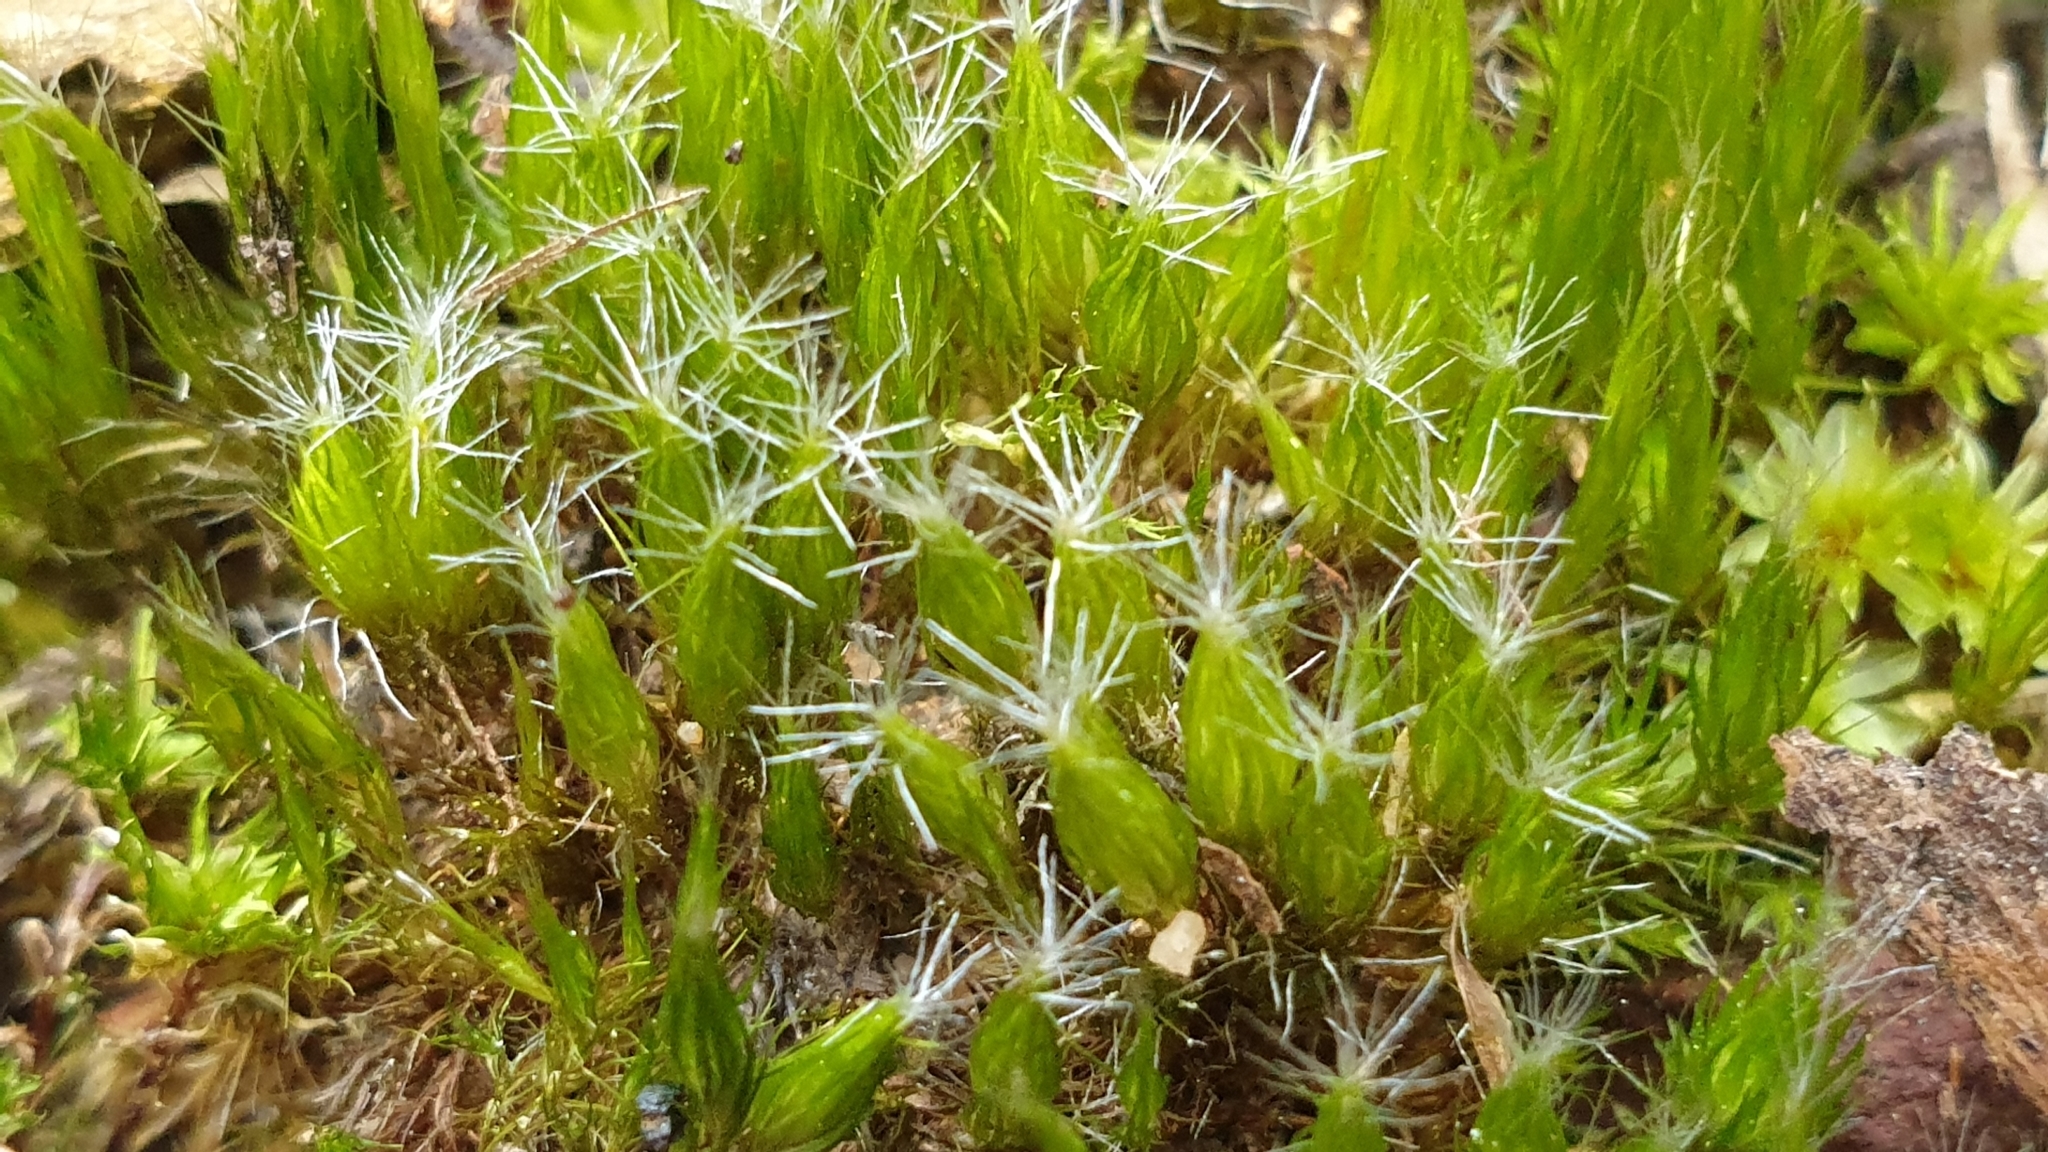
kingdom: Plantae
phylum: Bryophyta
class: Bryopsida
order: Dicranales
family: Leucobryaceae
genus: Campylopus
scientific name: Campylopus introflexus
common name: Heath star moss
